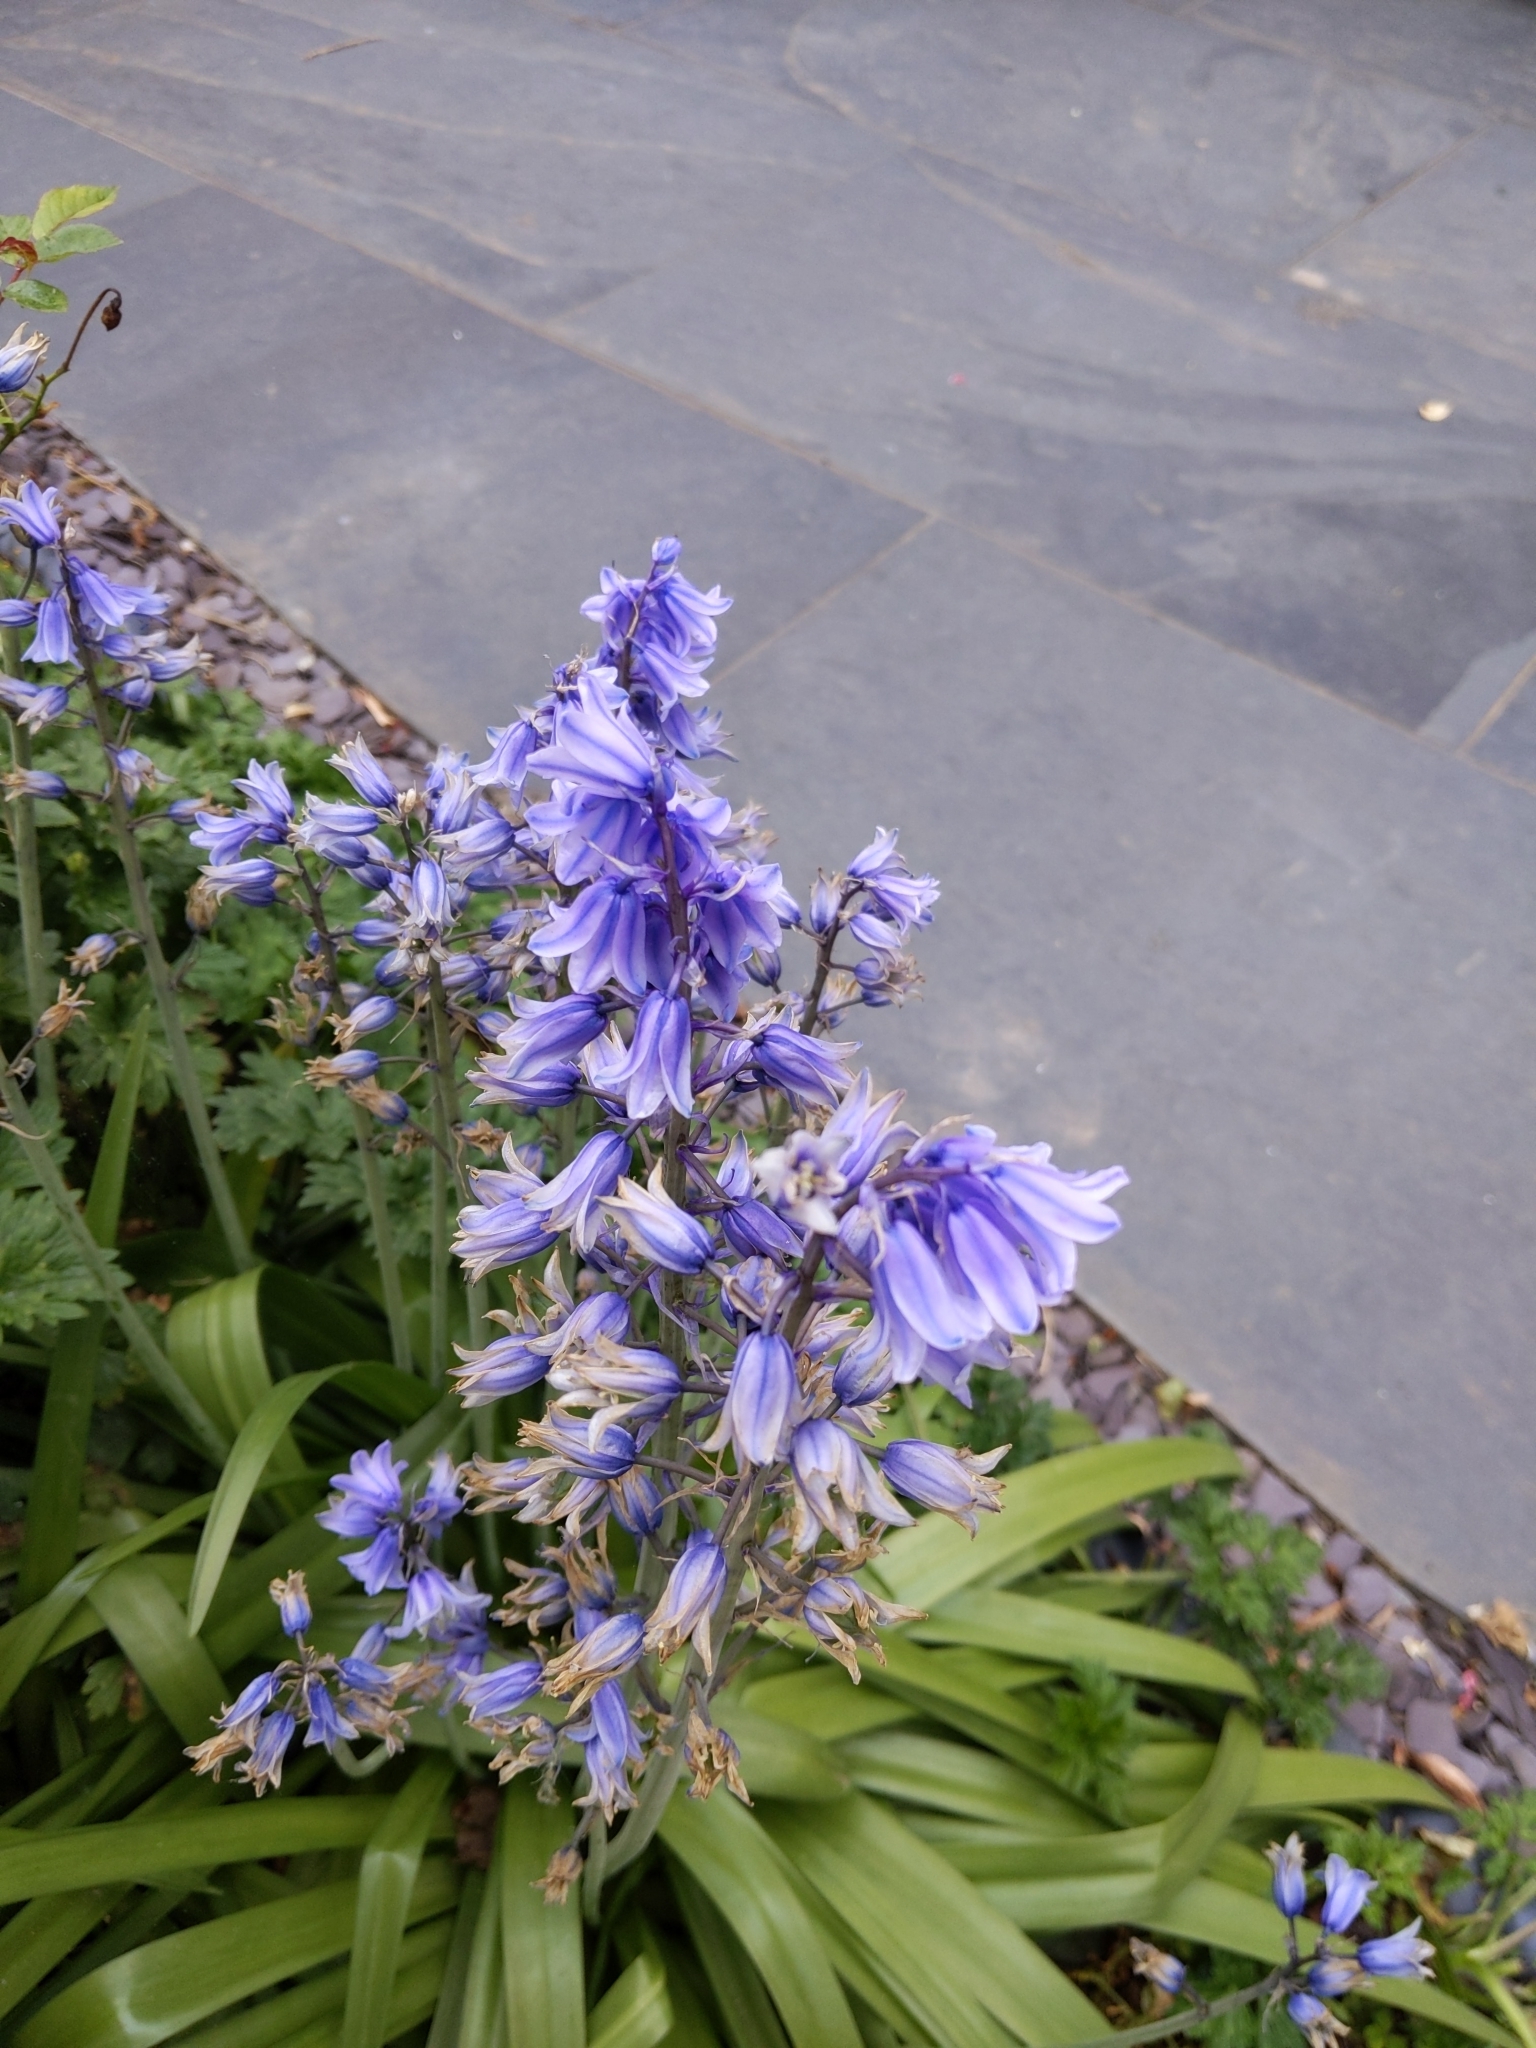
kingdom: Plantae
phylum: Tracheophyta
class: Liliopsida
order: Asparagales
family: Asparagaceae
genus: Hyacinthoides
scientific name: Hyacinthoides massartiana
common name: Hyacinthoides
